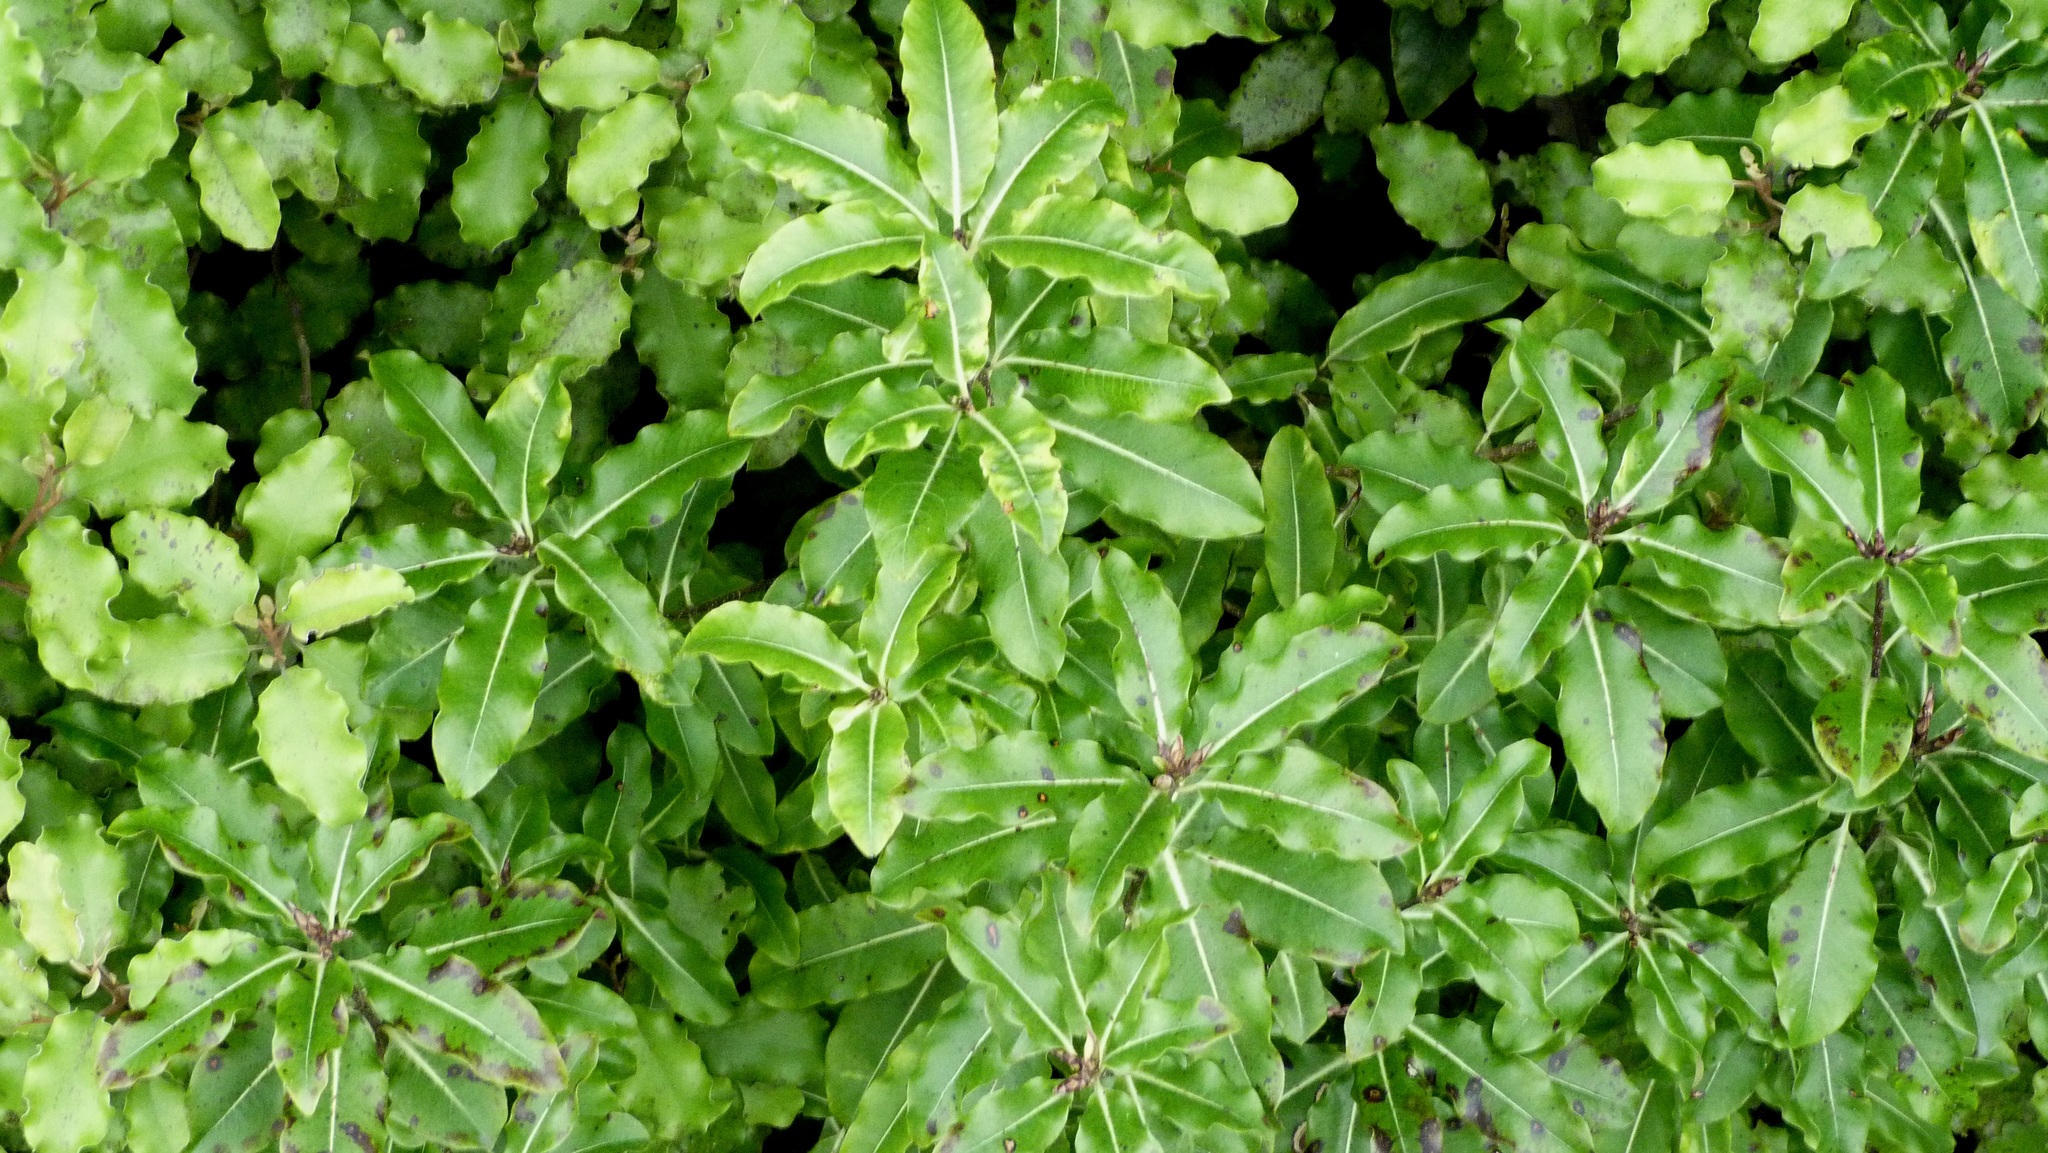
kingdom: Plantae
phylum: Tracheophyta
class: Magnoliopsida
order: Apiales
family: Pittosporaceae
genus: Pittosporum
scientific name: Pittosporum eugenioides
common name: Lemonwood
